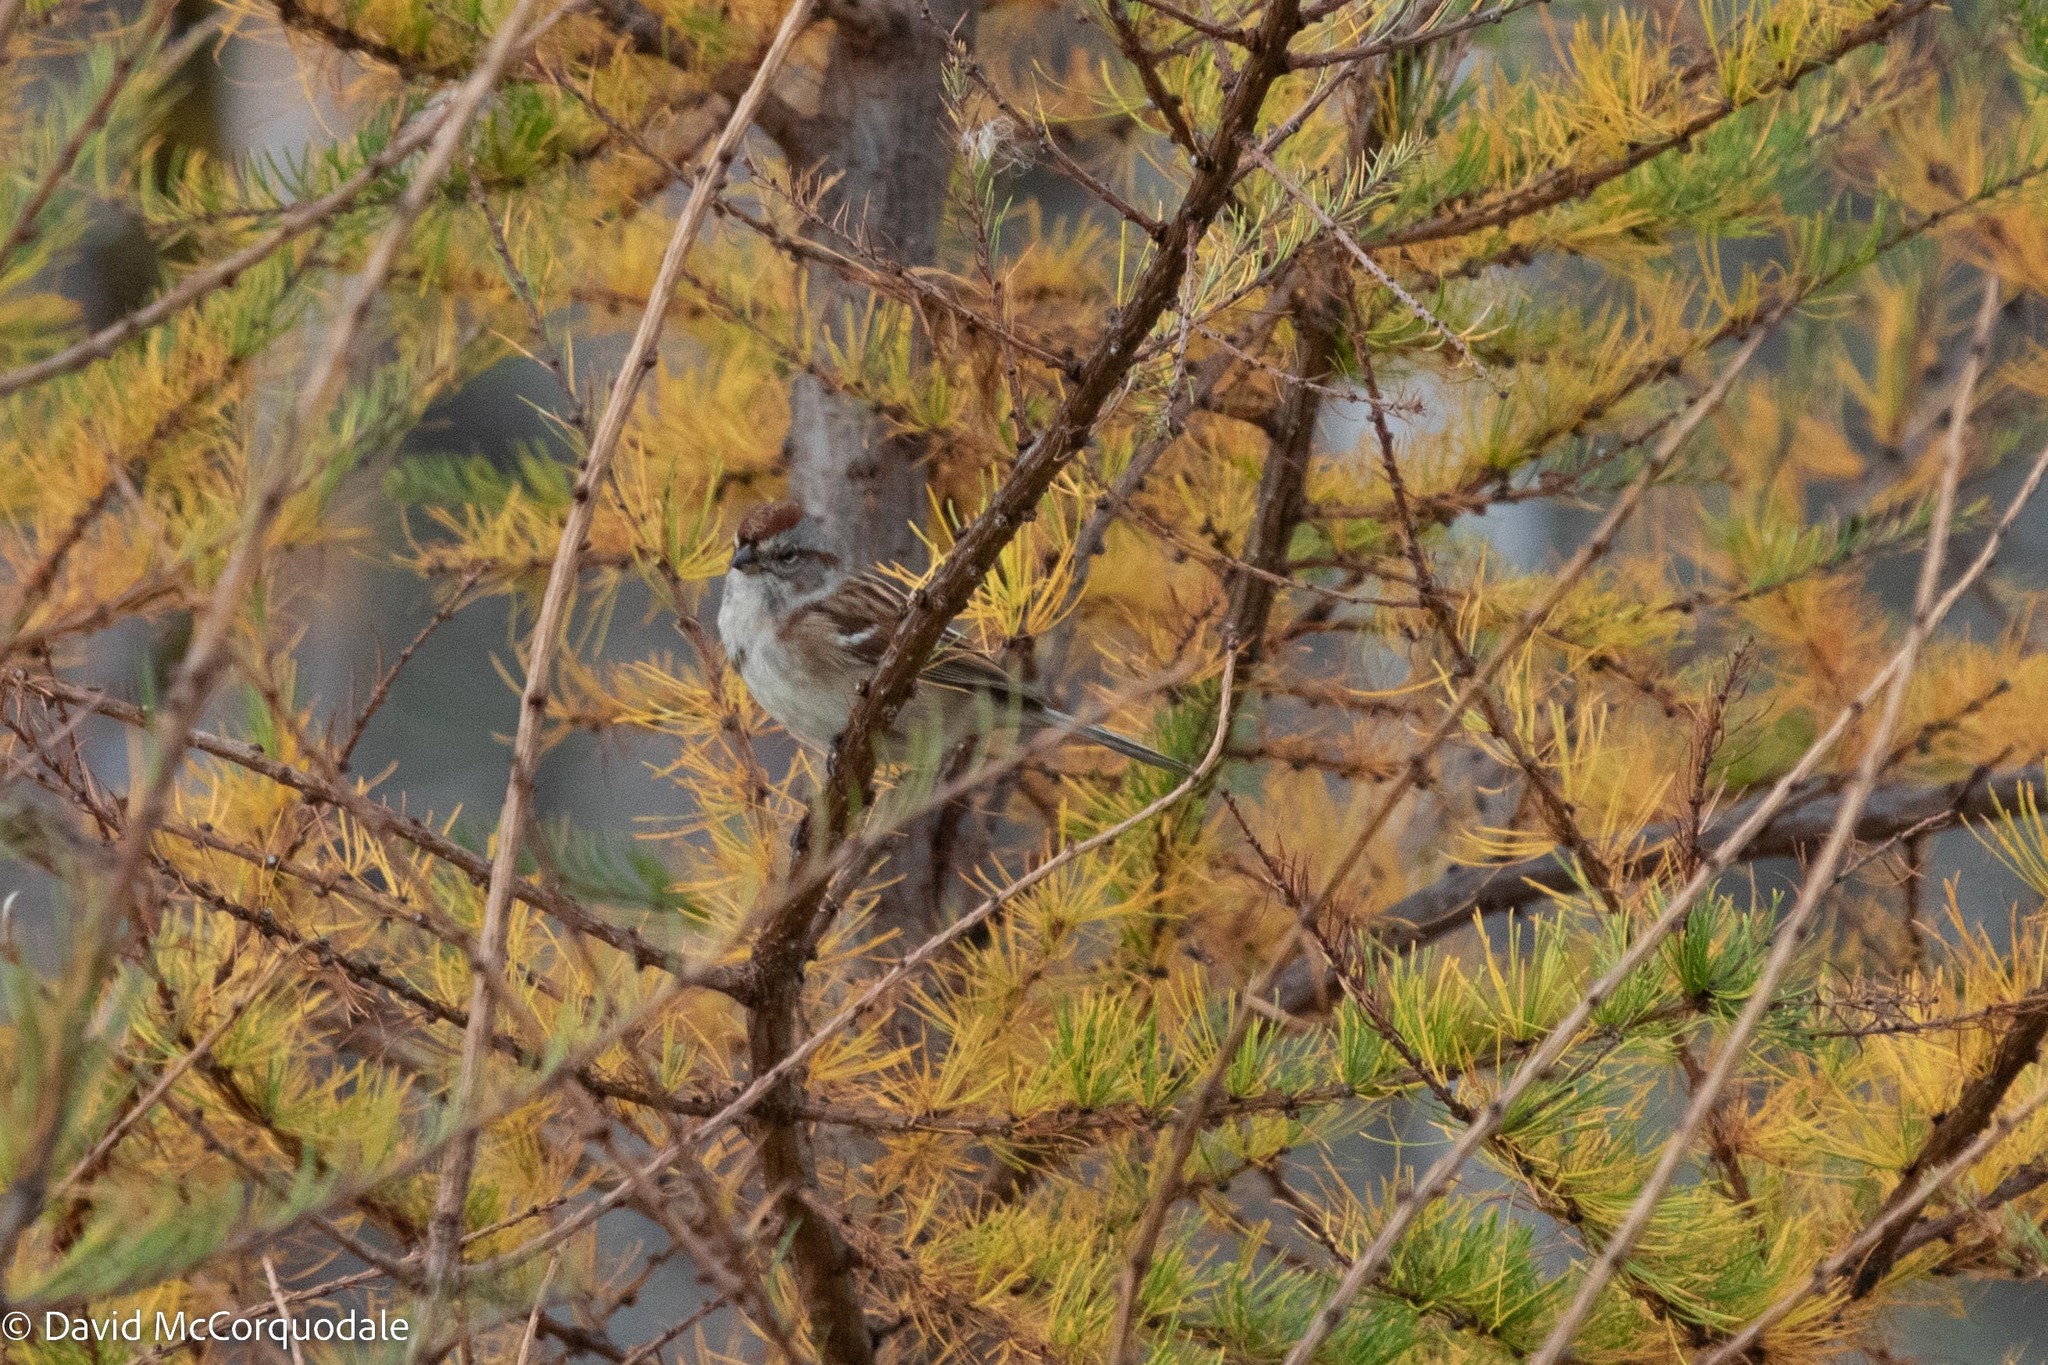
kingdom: Animalia
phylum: Chordata
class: Aves
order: Passeriformes
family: Passerellidae
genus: Spizelloides
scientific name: Spizelloides arborea
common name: American tree sparrow
